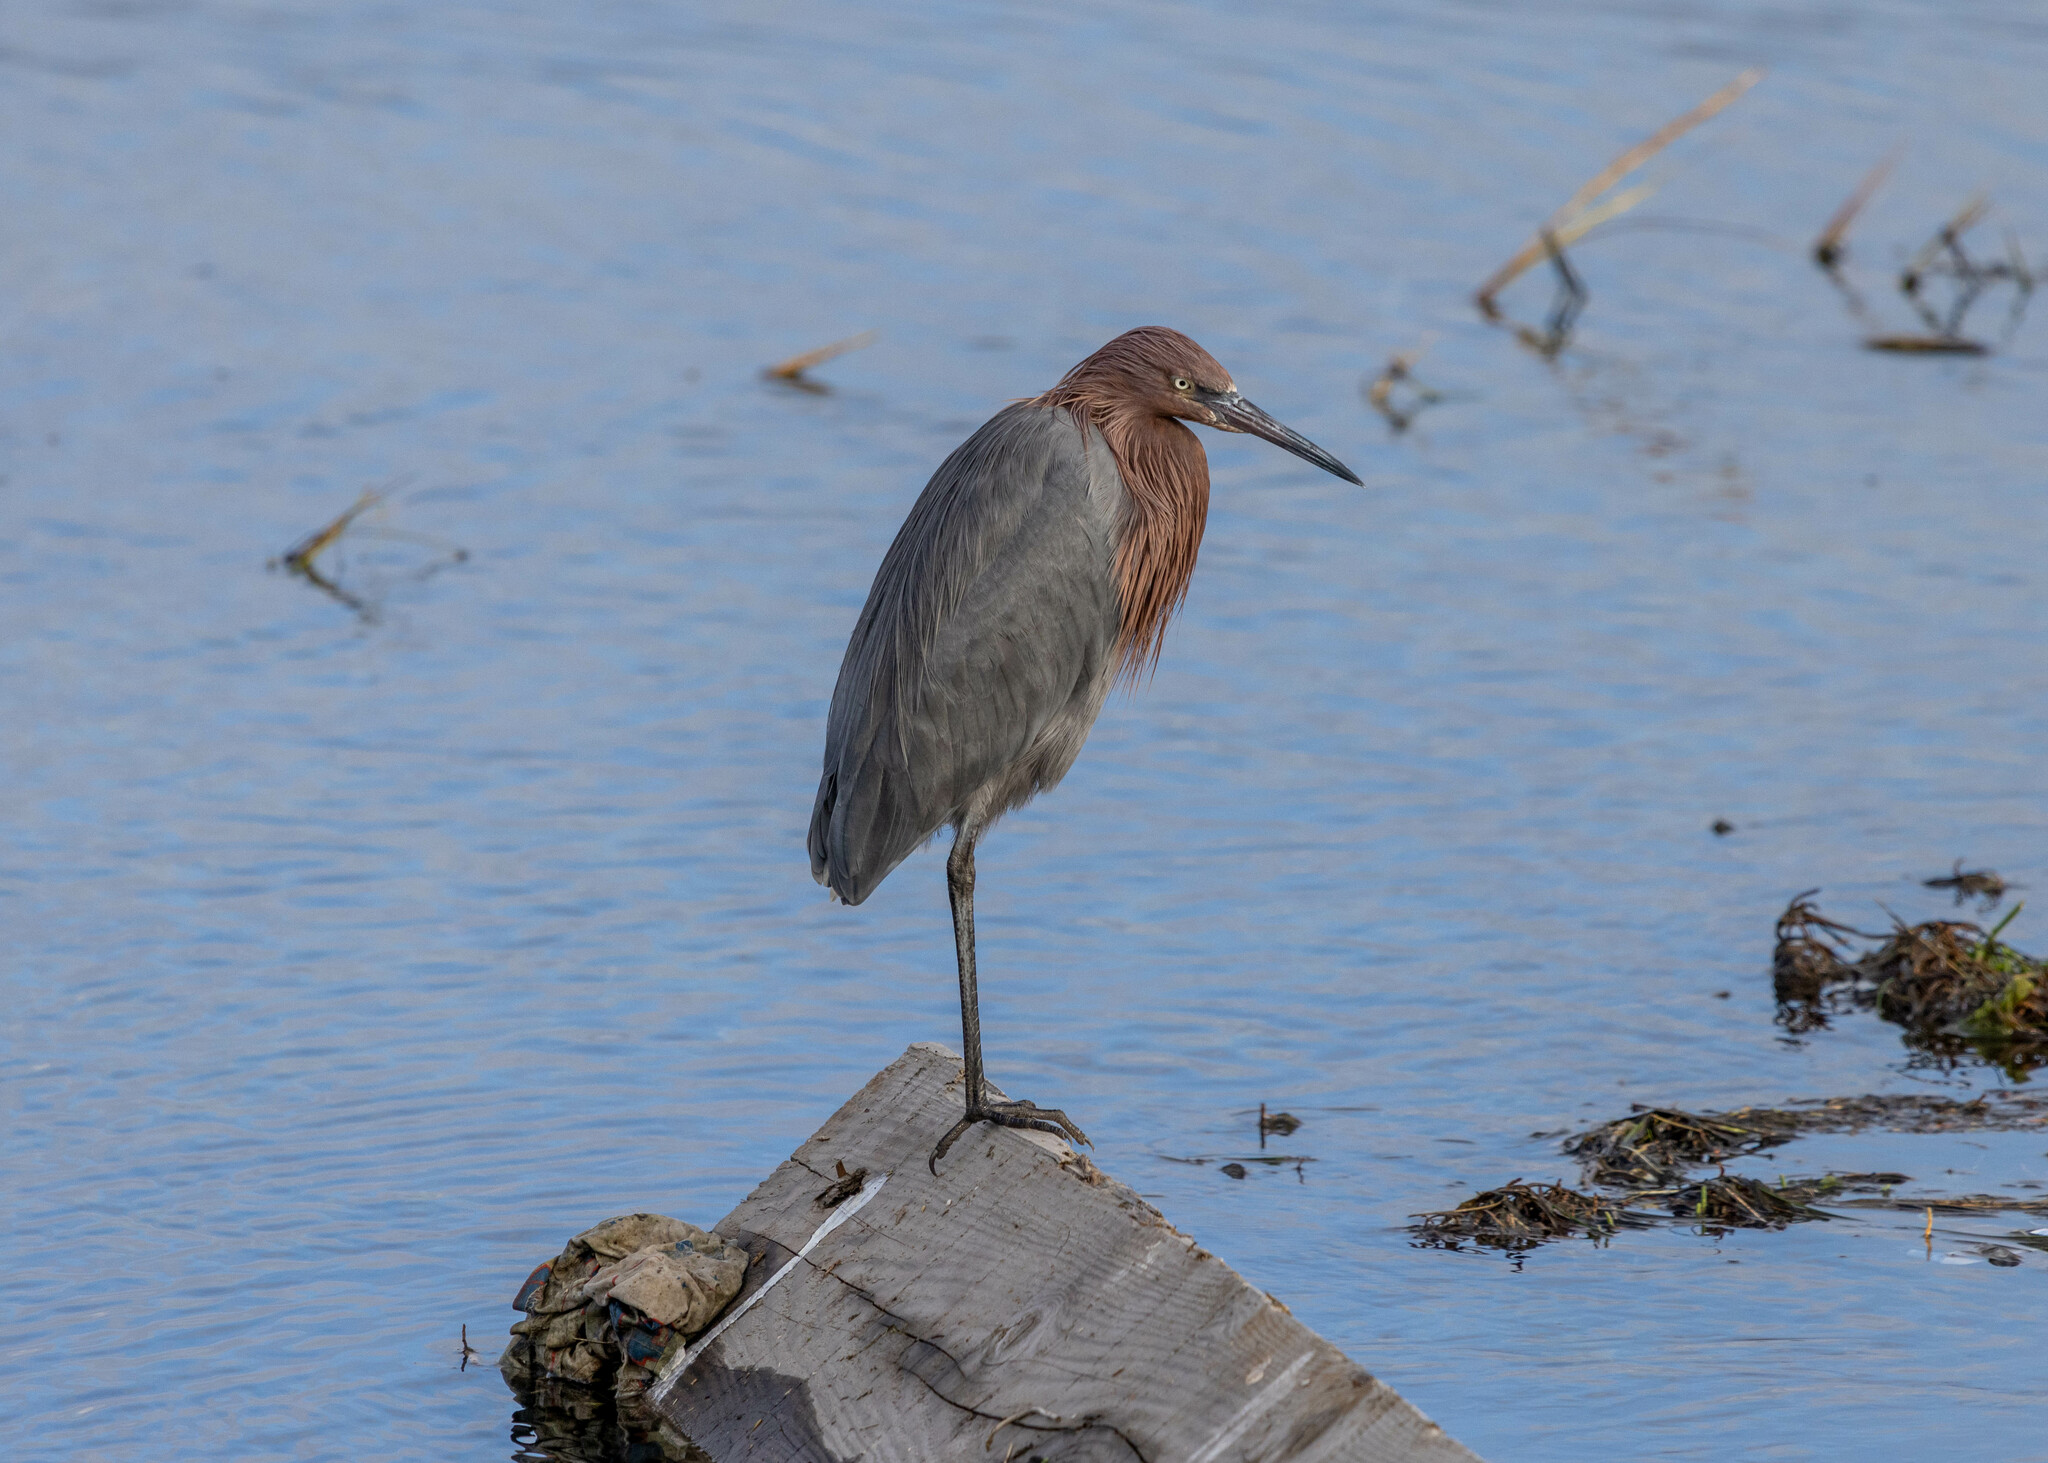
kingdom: Animalia
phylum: Chordata
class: Aves
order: Pelecaniformes
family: Ardeidae
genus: Egretta
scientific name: Egretta rufescens
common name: Reddish egret
